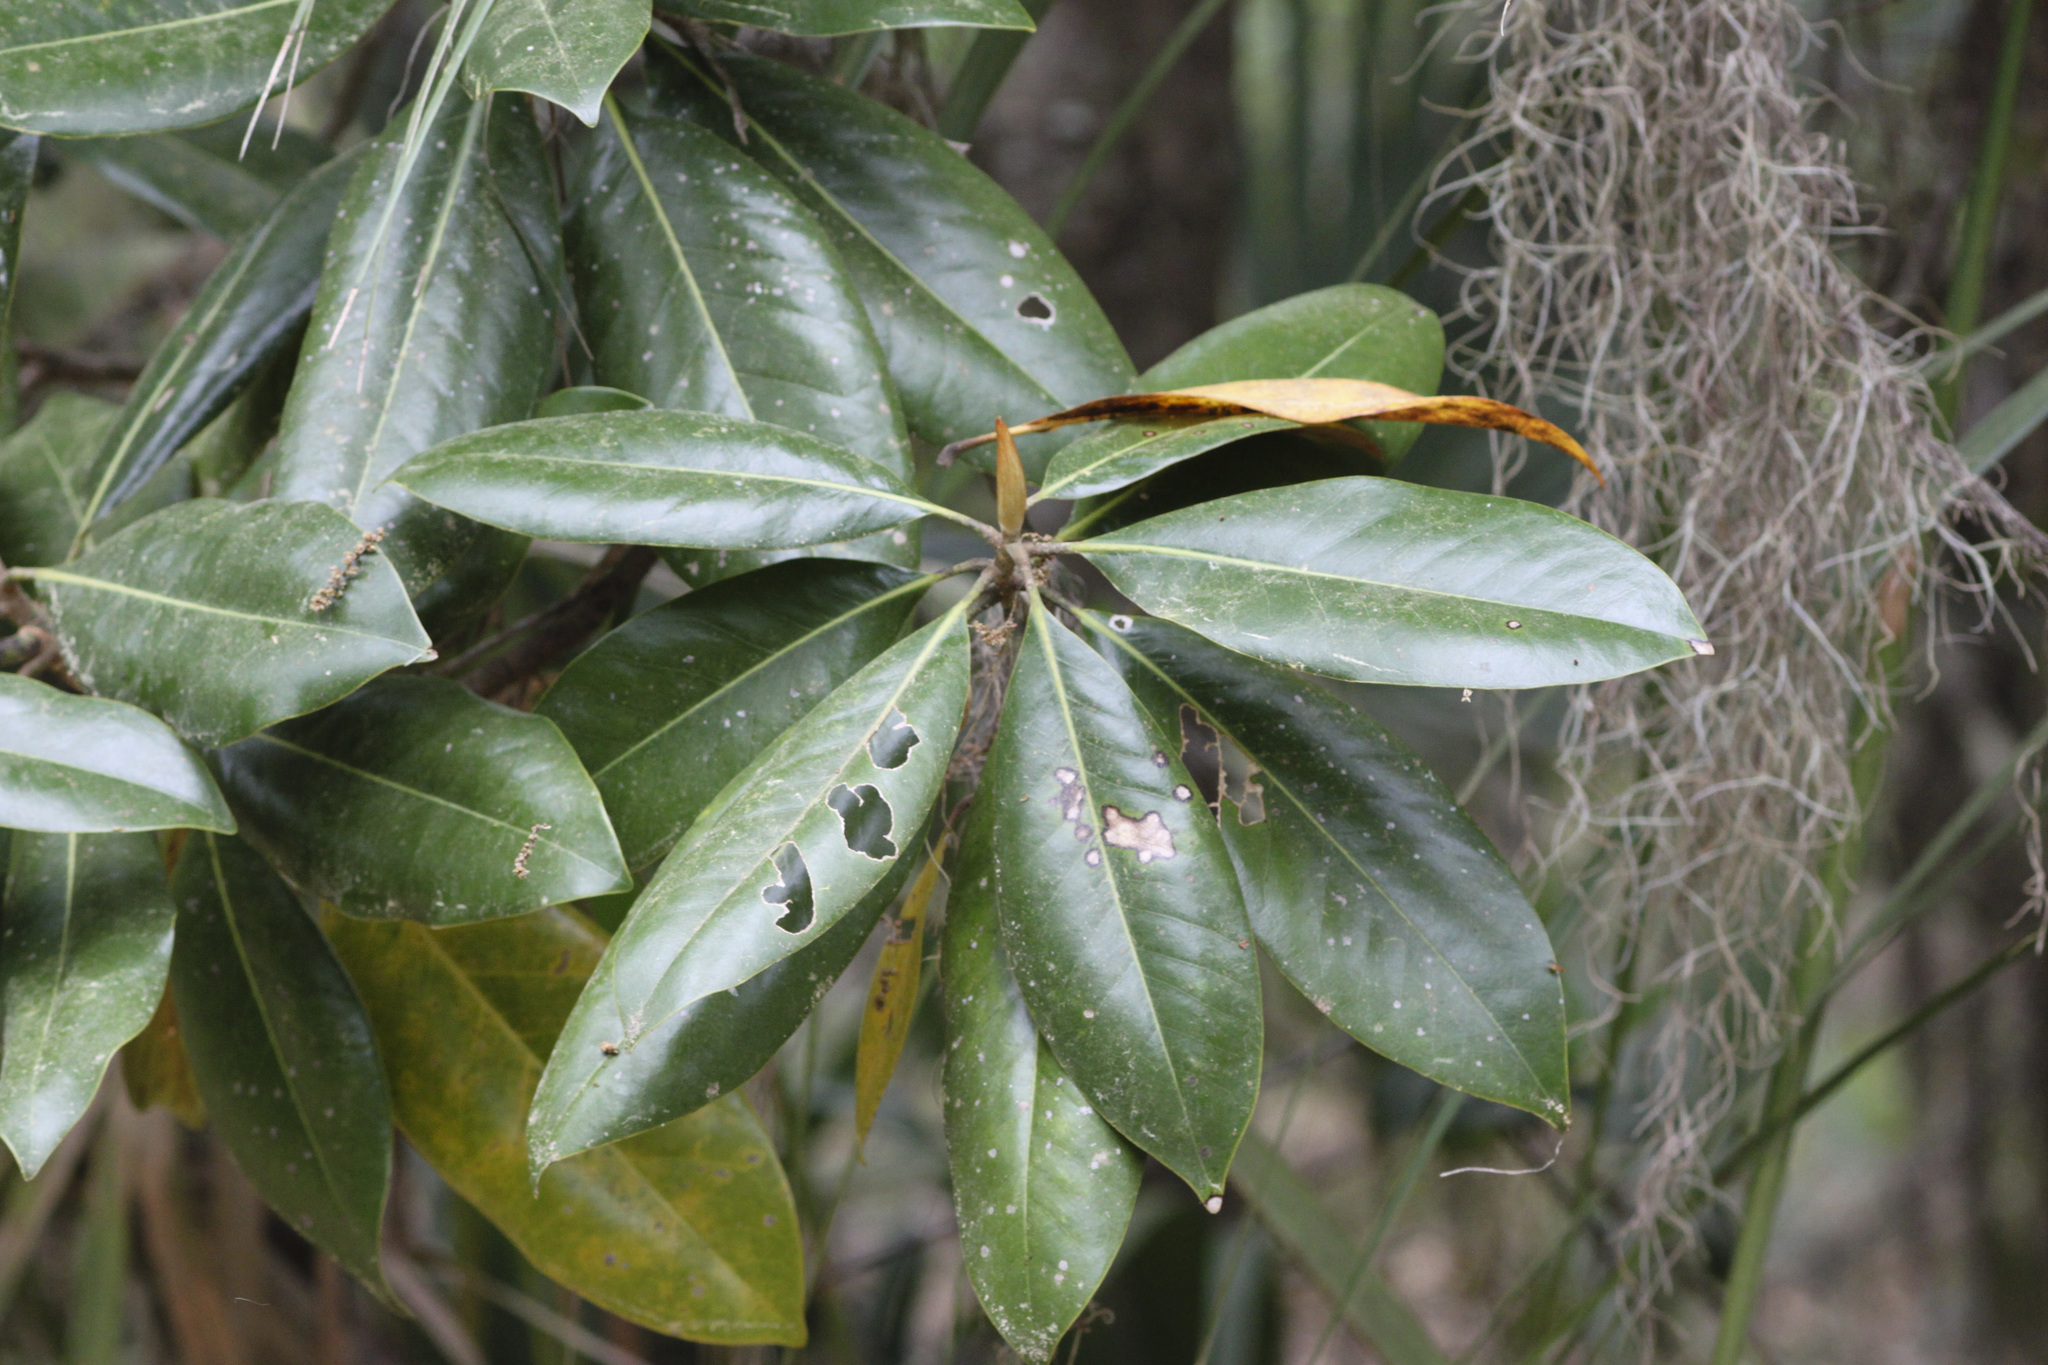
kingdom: Plantae
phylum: Tracheophyta
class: Magnoliopsida
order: Magnoliales
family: Magnoliaceae
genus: Magnolia
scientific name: Magnolia grandiflora
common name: Southern magnolia
